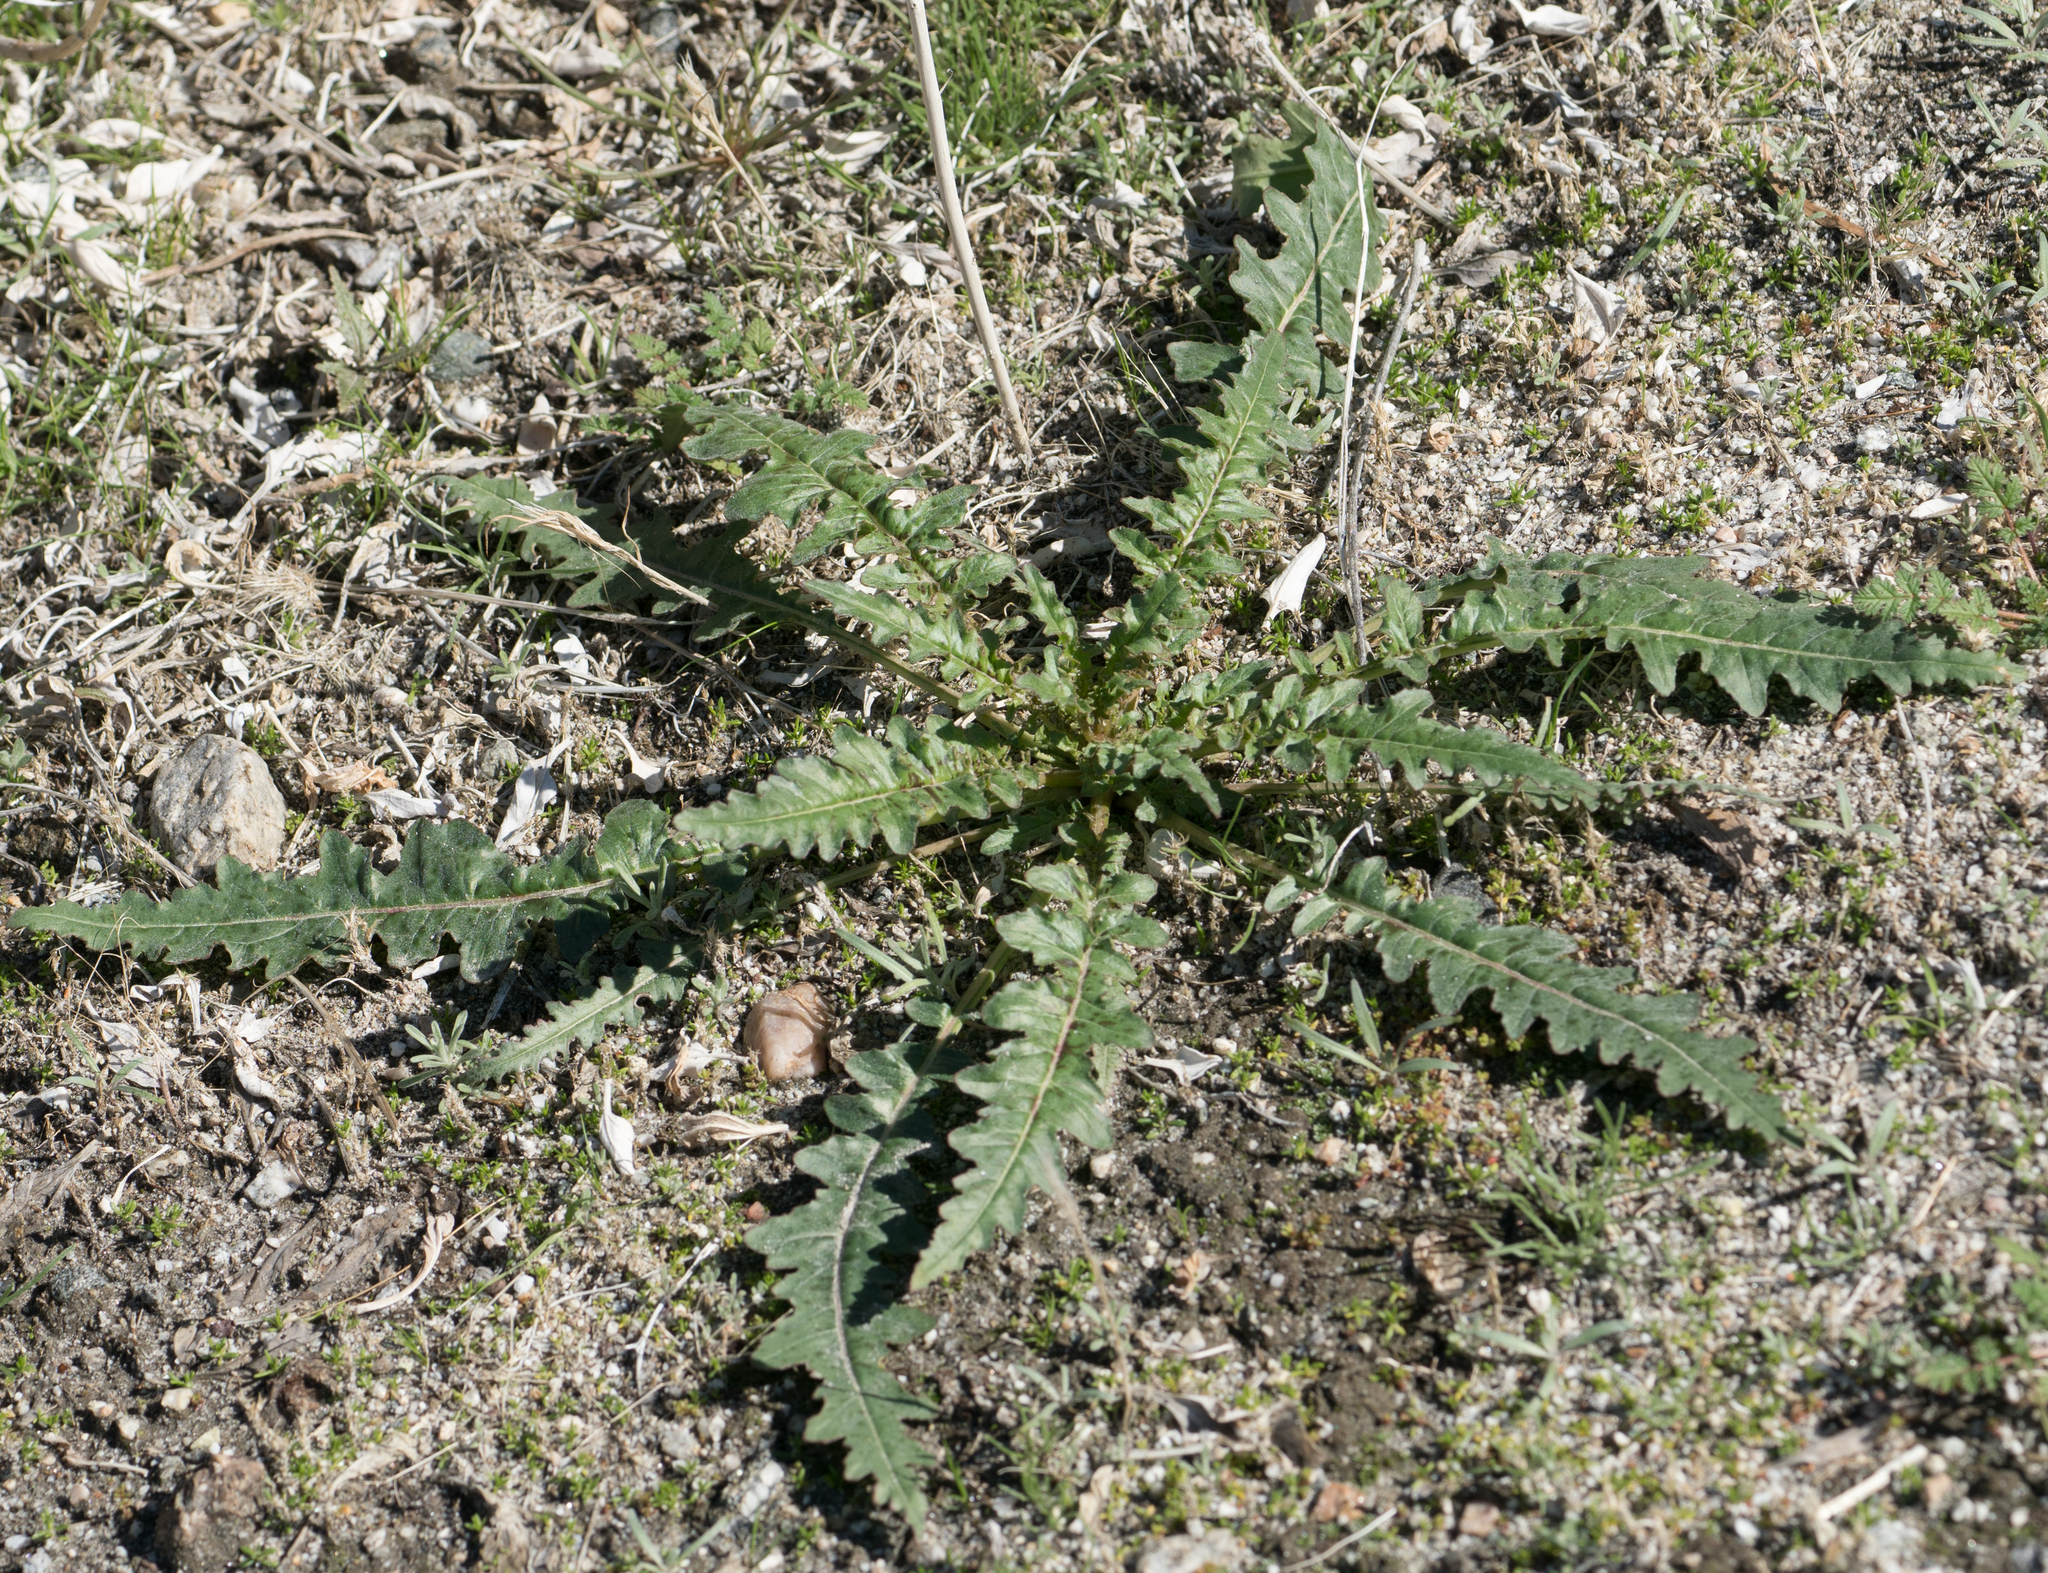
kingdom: Plantae
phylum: Tracheophyta
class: Magnoliopsida
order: Myrtales
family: Onagraceae
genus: Eulobus
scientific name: Eulobus californicus
